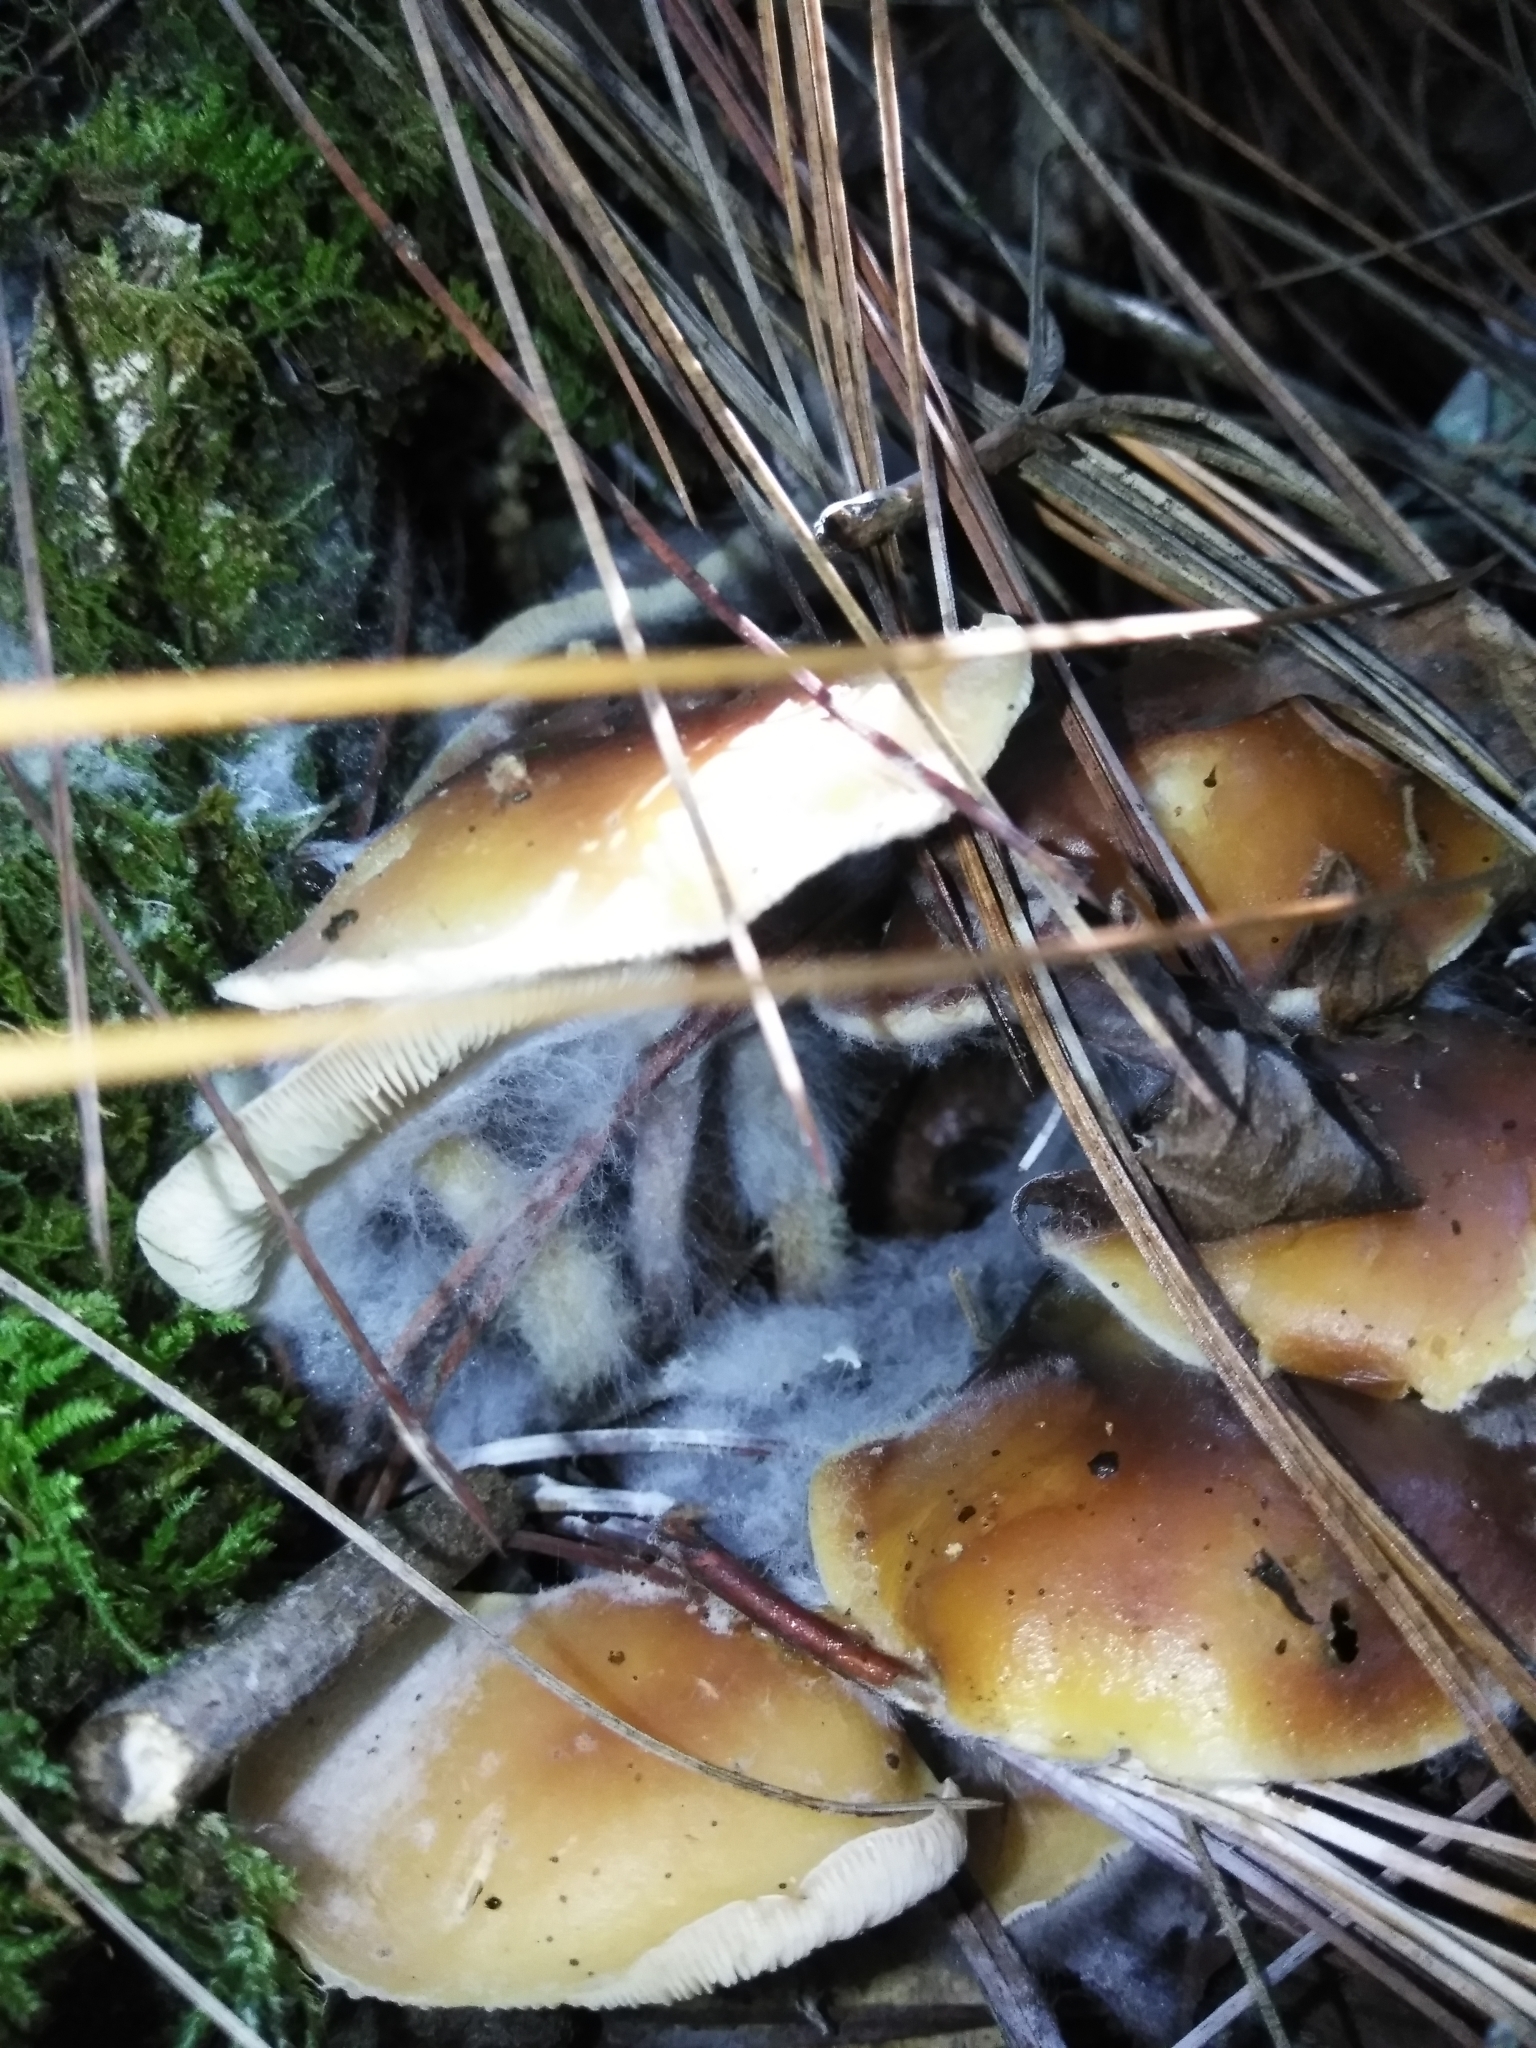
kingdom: Fungi
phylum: Mucoromycota
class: Mucoromycetes
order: Mucorales
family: Rhizopodaceae
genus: Syzygites
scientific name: Syzygites megalocarpus
